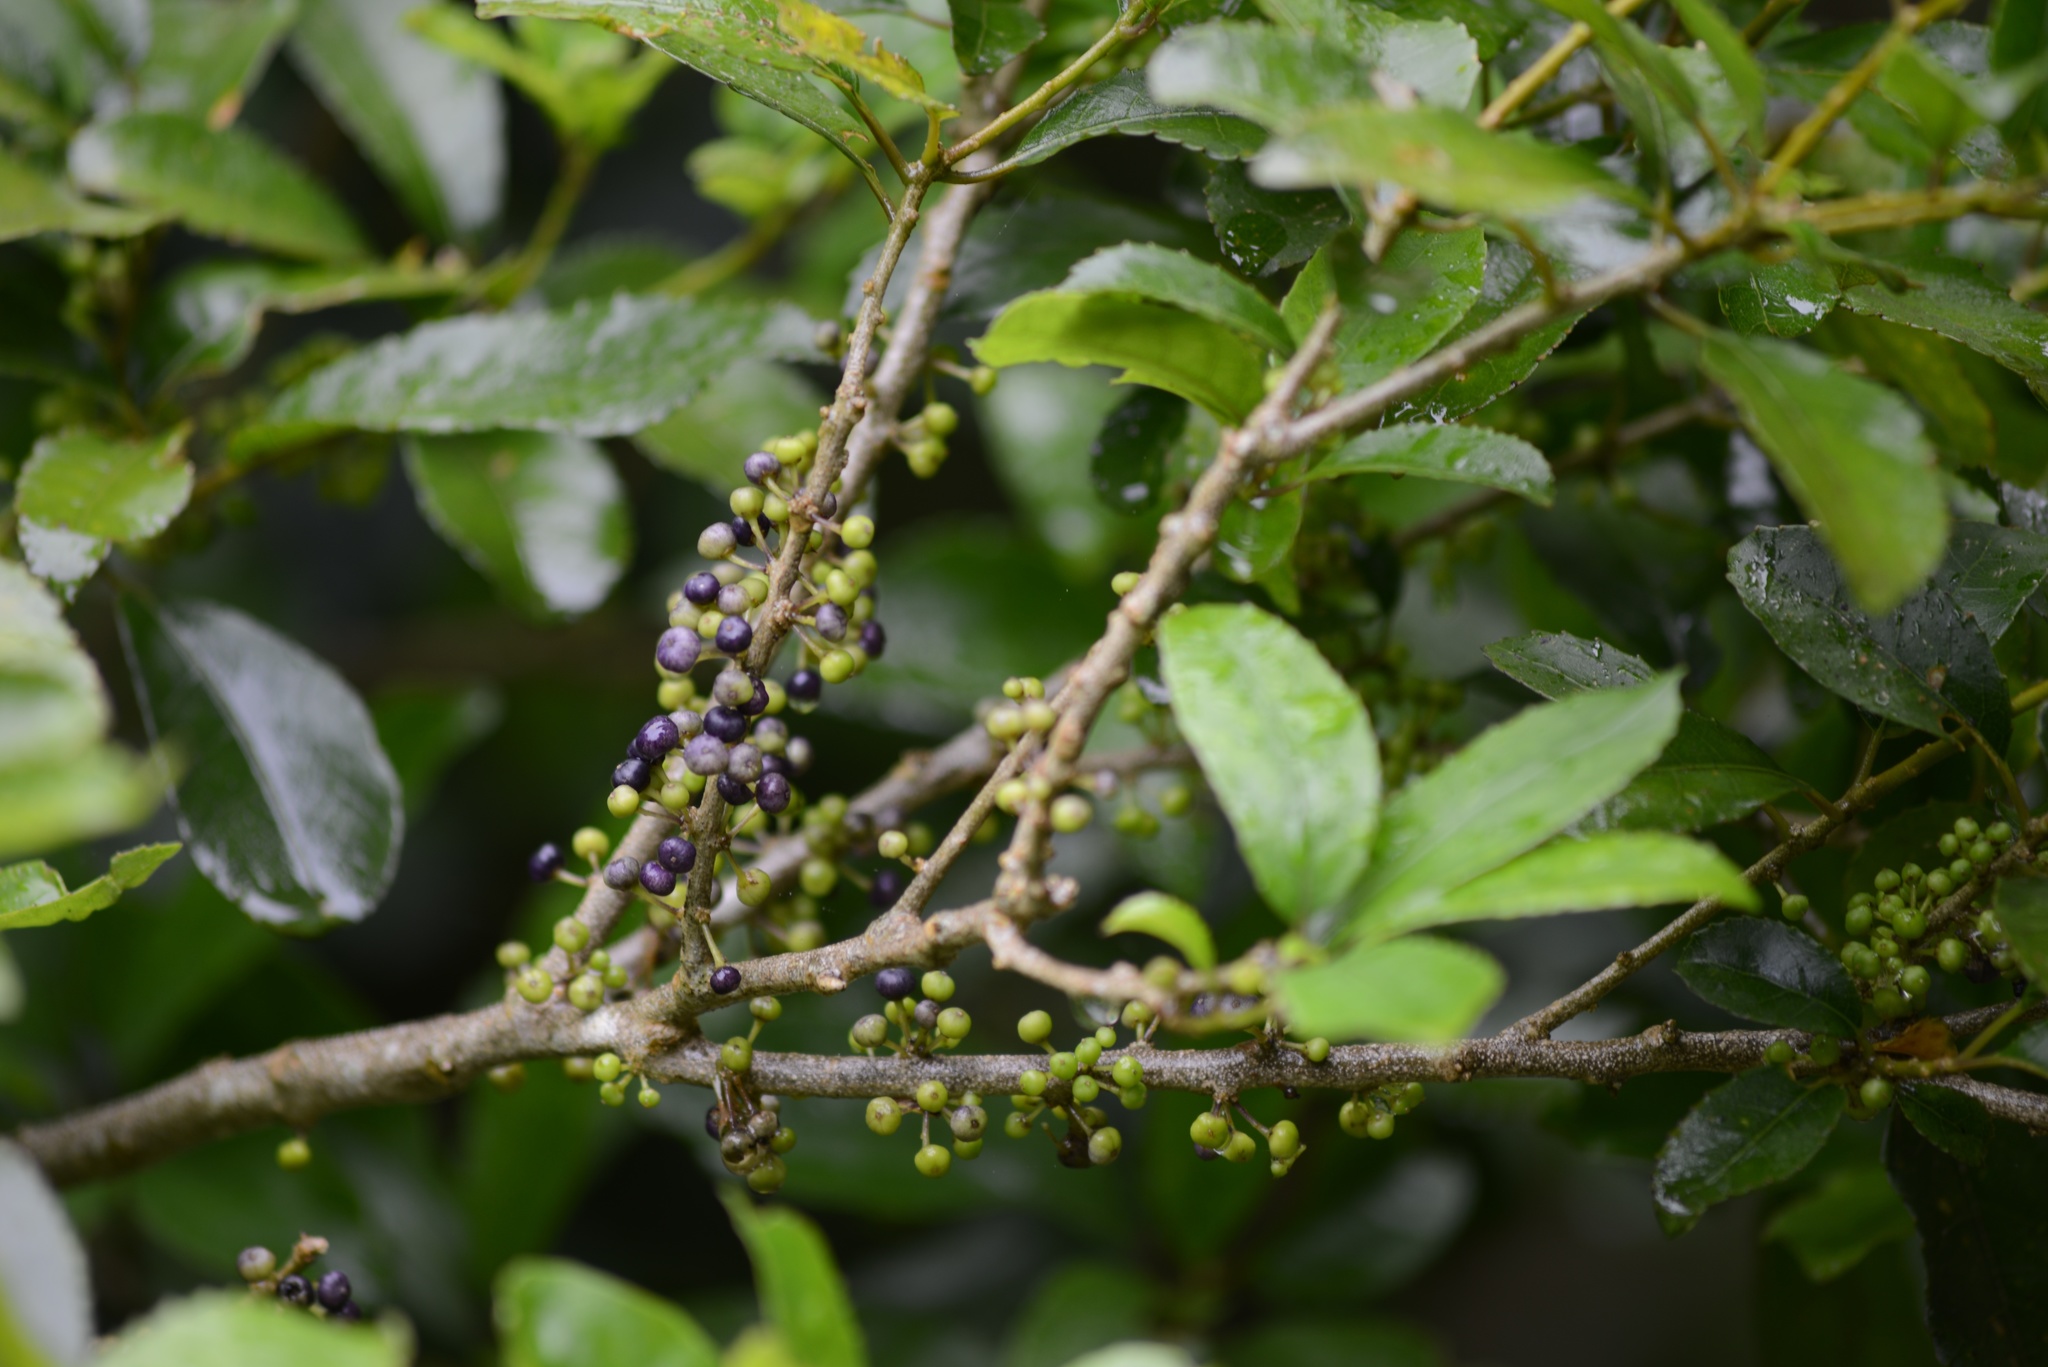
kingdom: Plantae
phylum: Tracheophyta
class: Magnoliopsida
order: Malpighiales
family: Violaceae
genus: Melicytus
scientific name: Melicytus ramiflorus
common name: Mahoe
